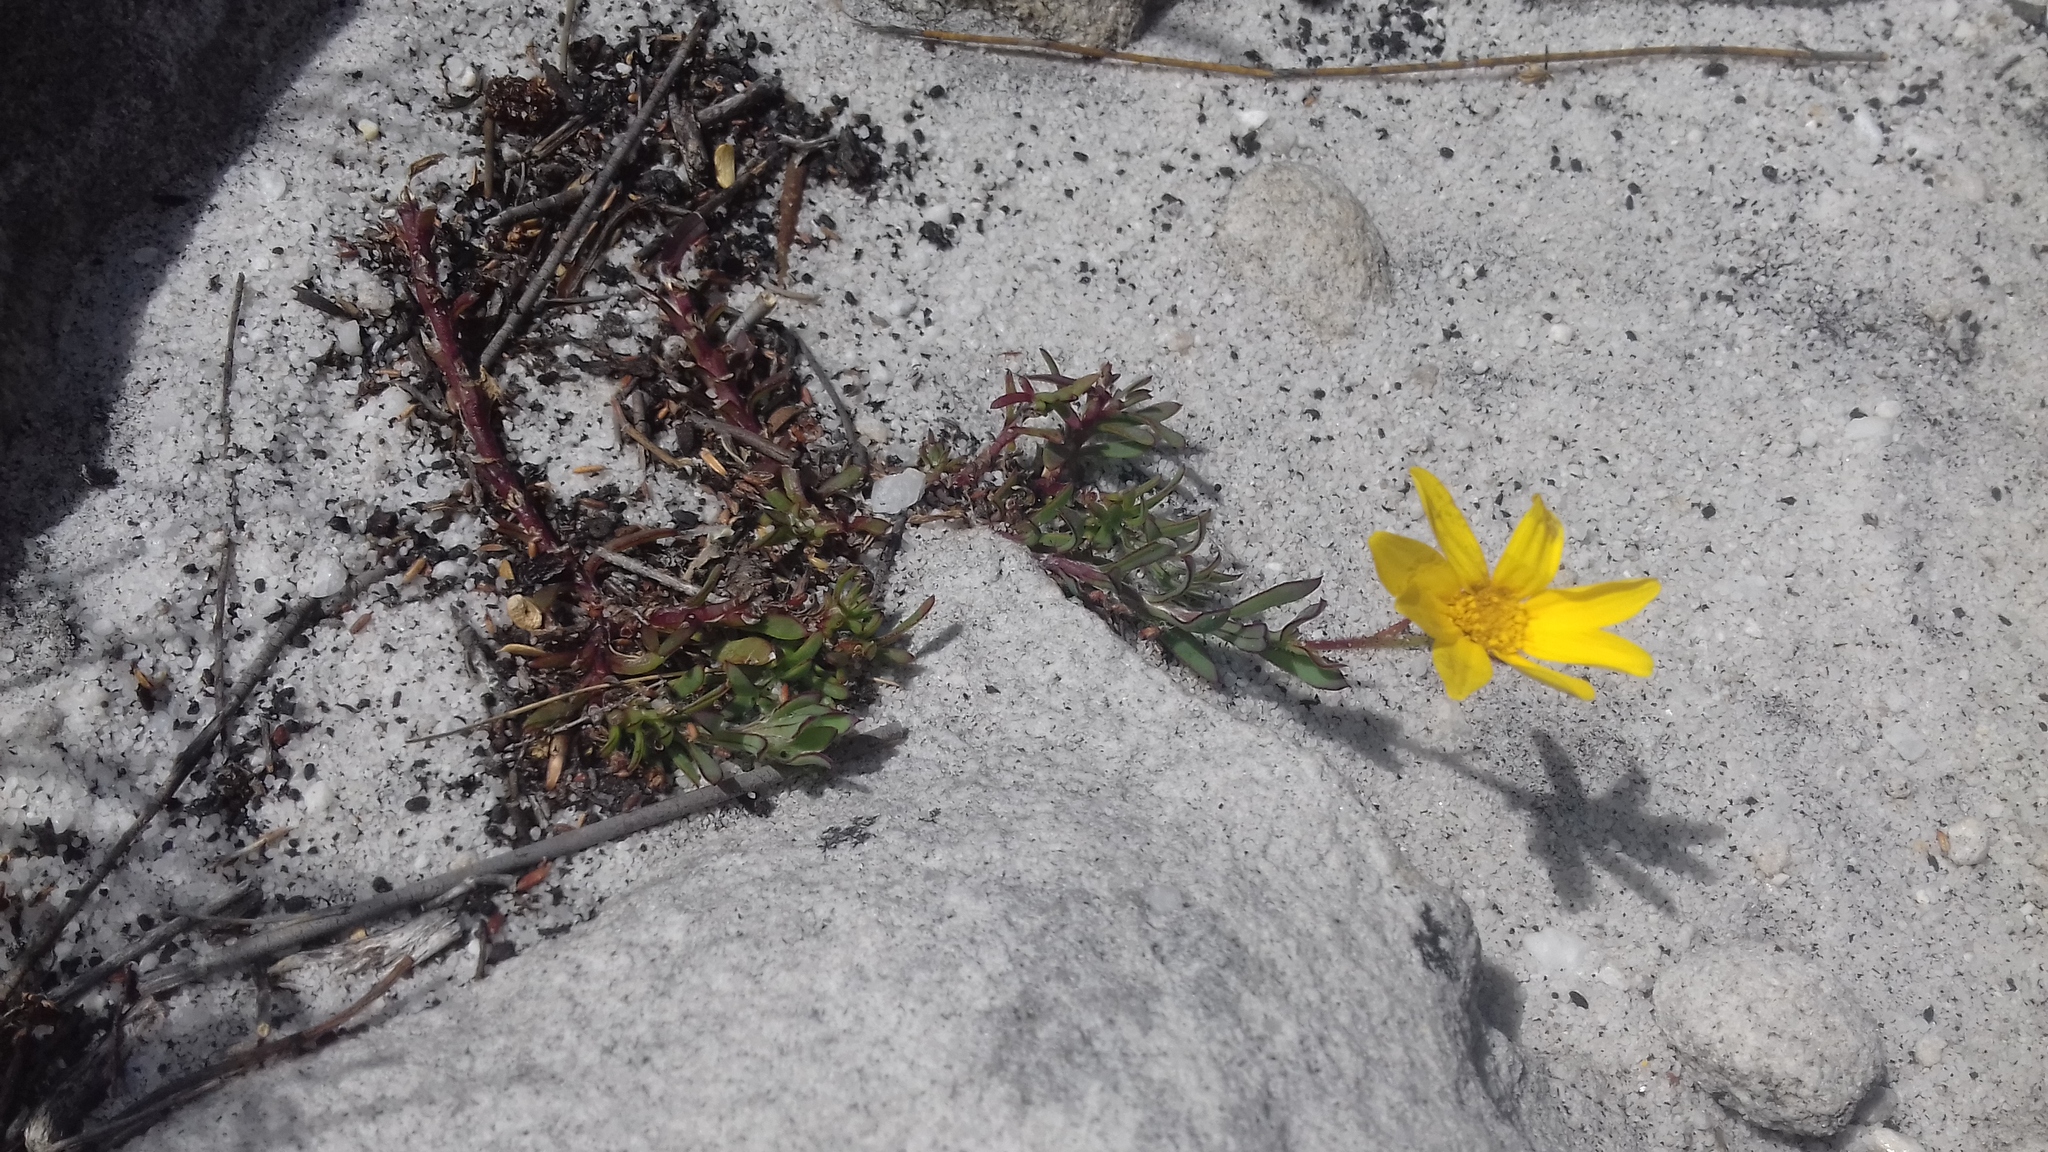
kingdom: Plantae
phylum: Tracheophyta
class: Magnoliopsida
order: Asterales
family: Asteraceae
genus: Osteospermum
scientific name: Osteospermum polygaloides
